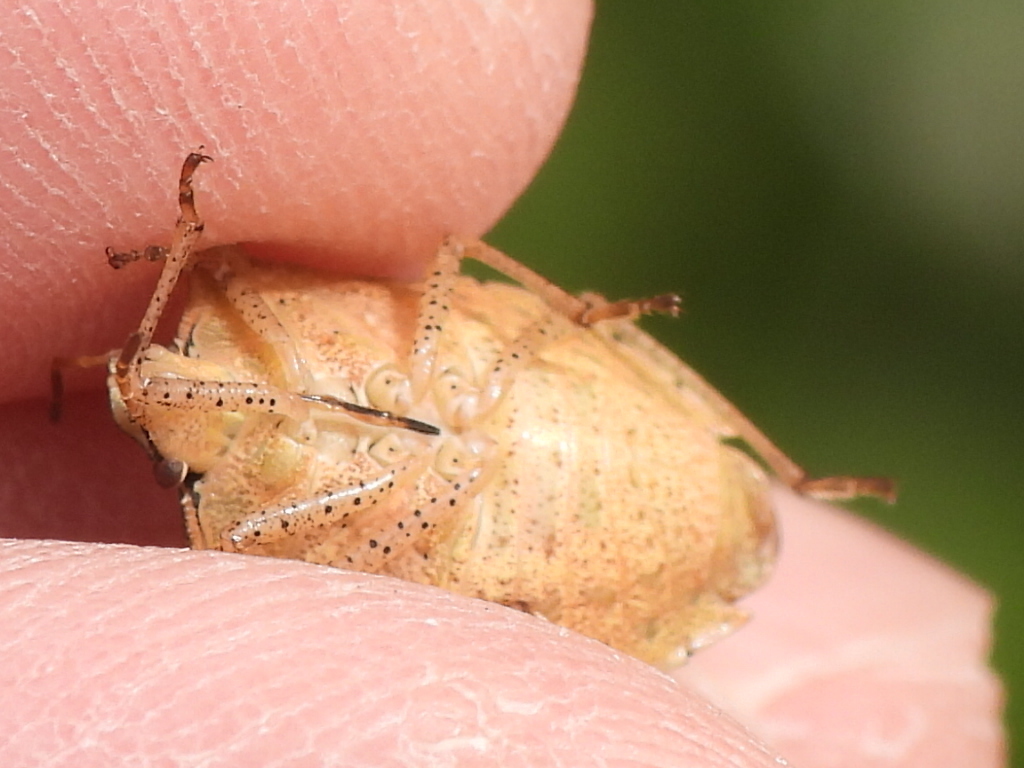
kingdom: Animalia
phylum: Arthropoda
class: Insecta
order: Hemiptera
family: Pentatomidae
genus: Euschistus
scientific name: Euschistus servus
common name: Brown stink bug
